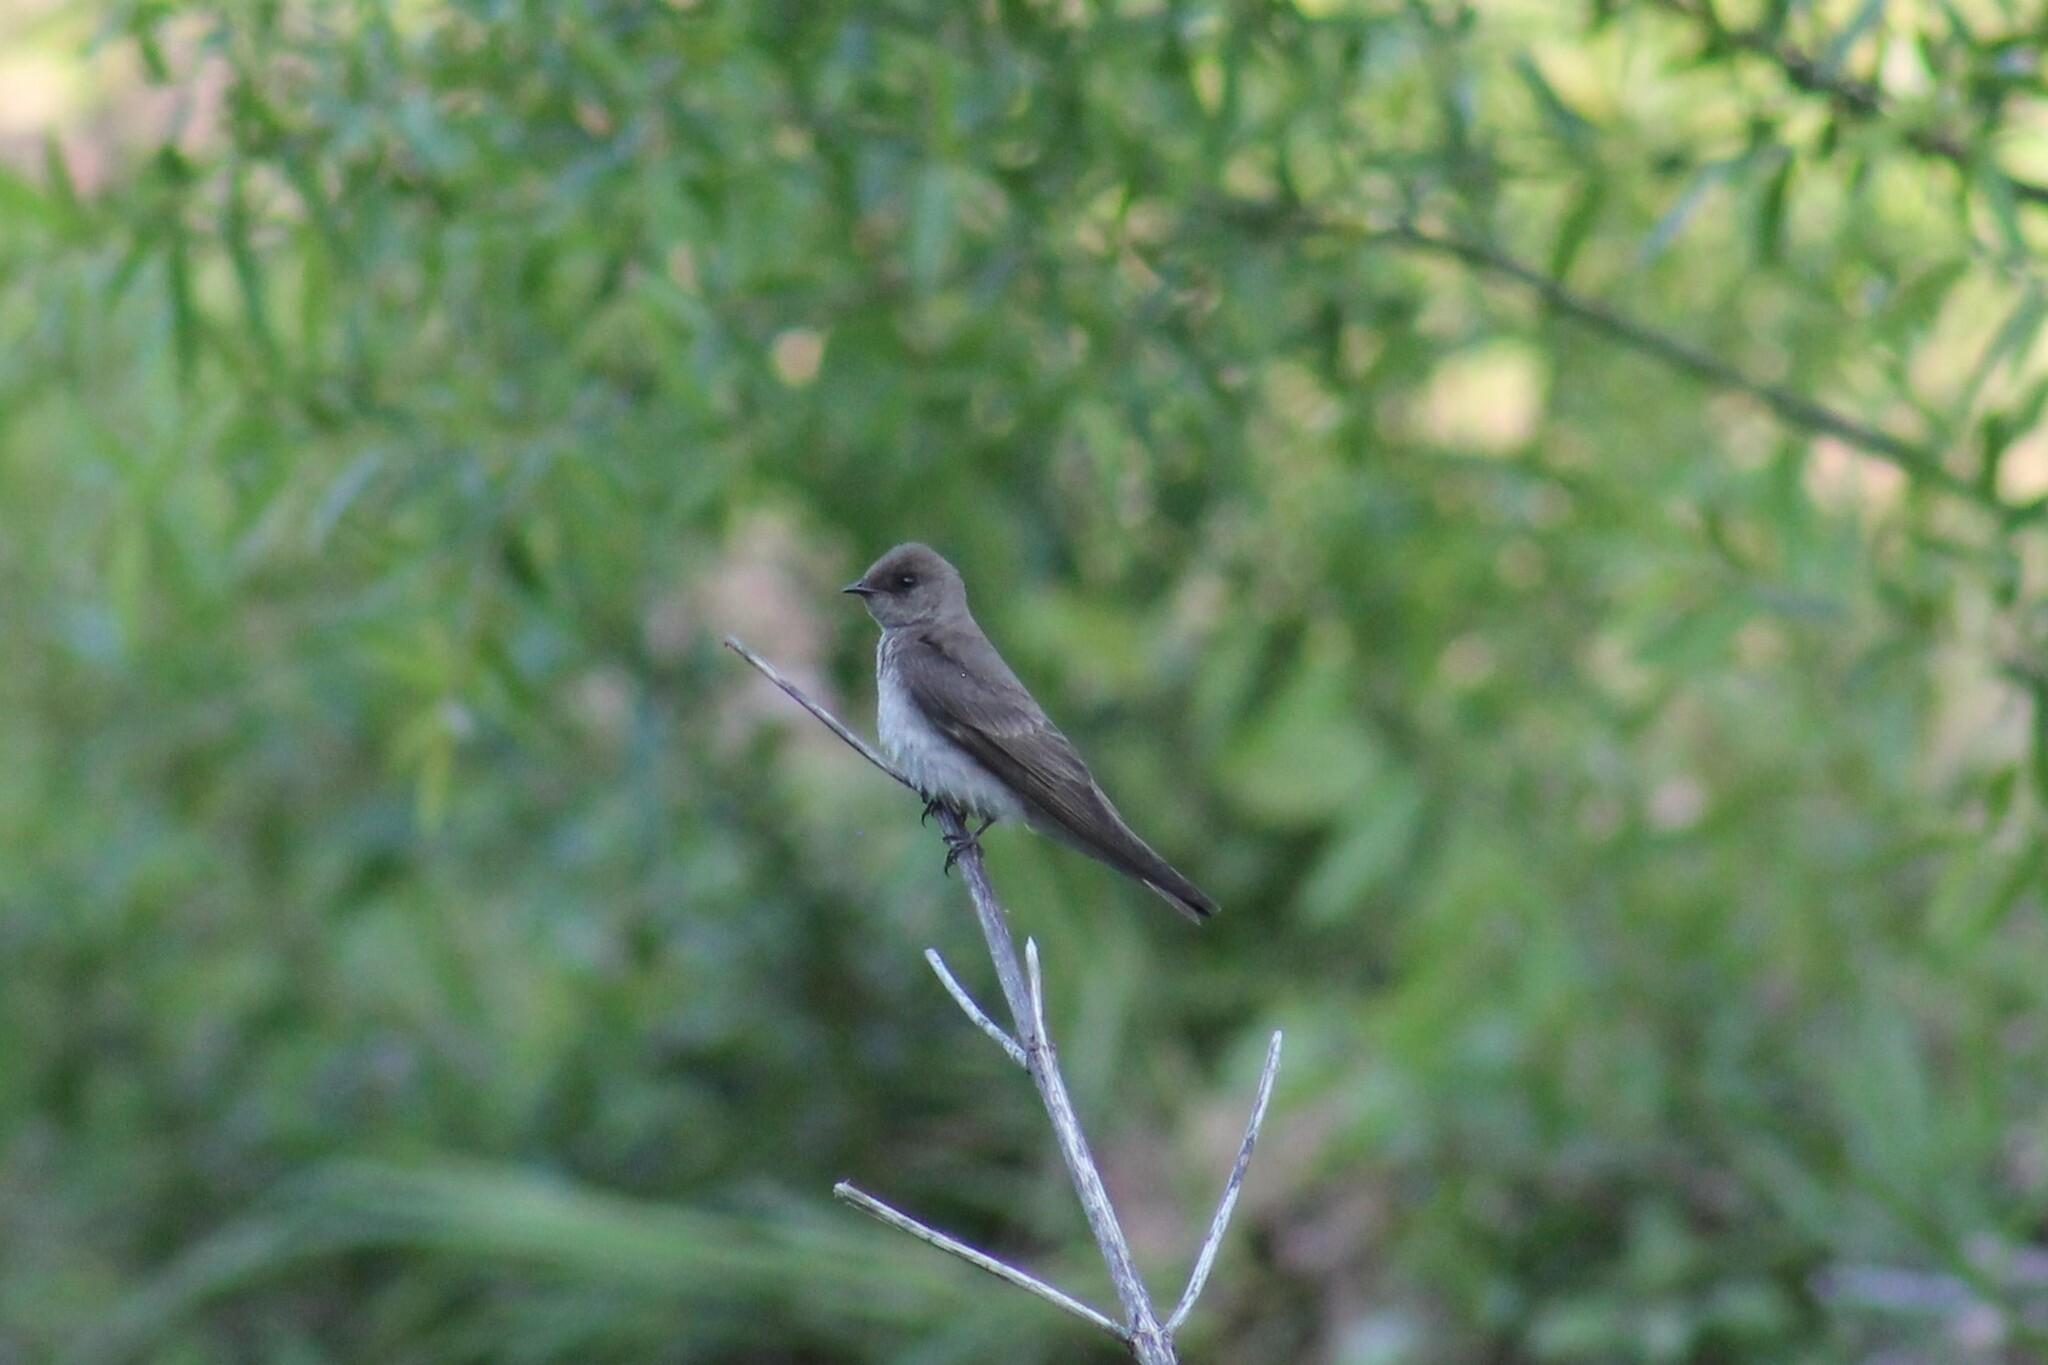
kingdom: Animalia
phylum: Chordata
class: Aves
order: Passeriformes
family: Hirundinidae
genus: Stelgidopteryx
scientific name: Stelgidopteryx serripennis
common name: Northern rough-winged swallow
